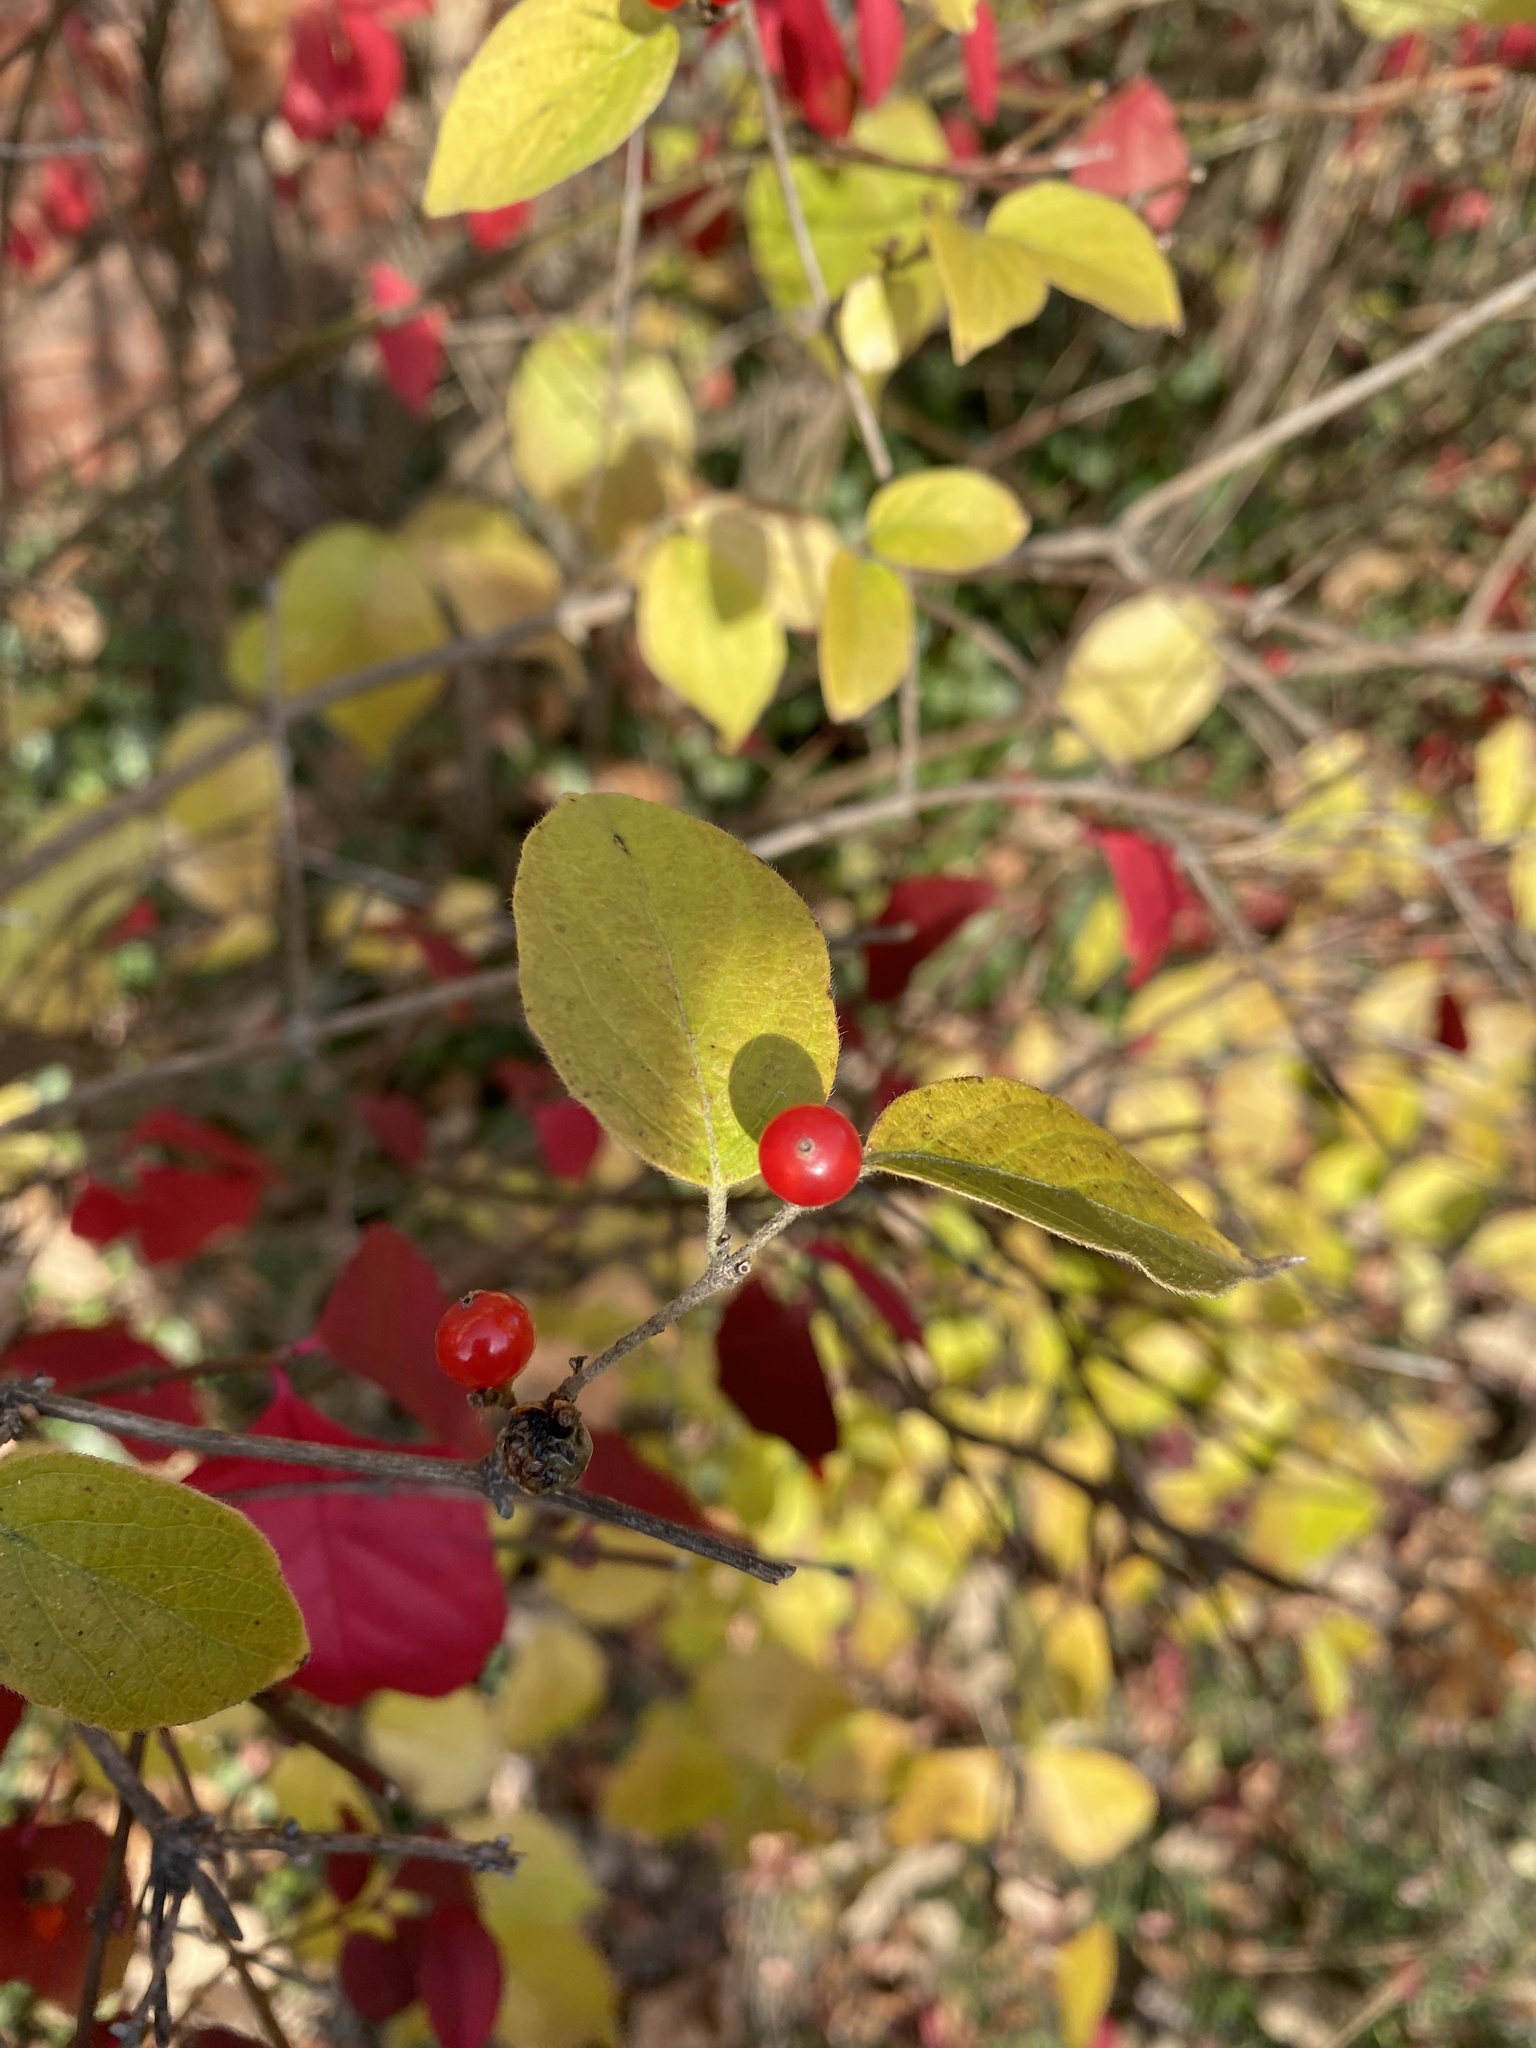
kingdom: Plantae
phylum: Tracheophyta
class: Magnoliopsida
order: Dipsacales
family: Caprifoliaceae
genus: Lonicera
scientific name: Lonicera maackii
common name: Amur honeysuckle
